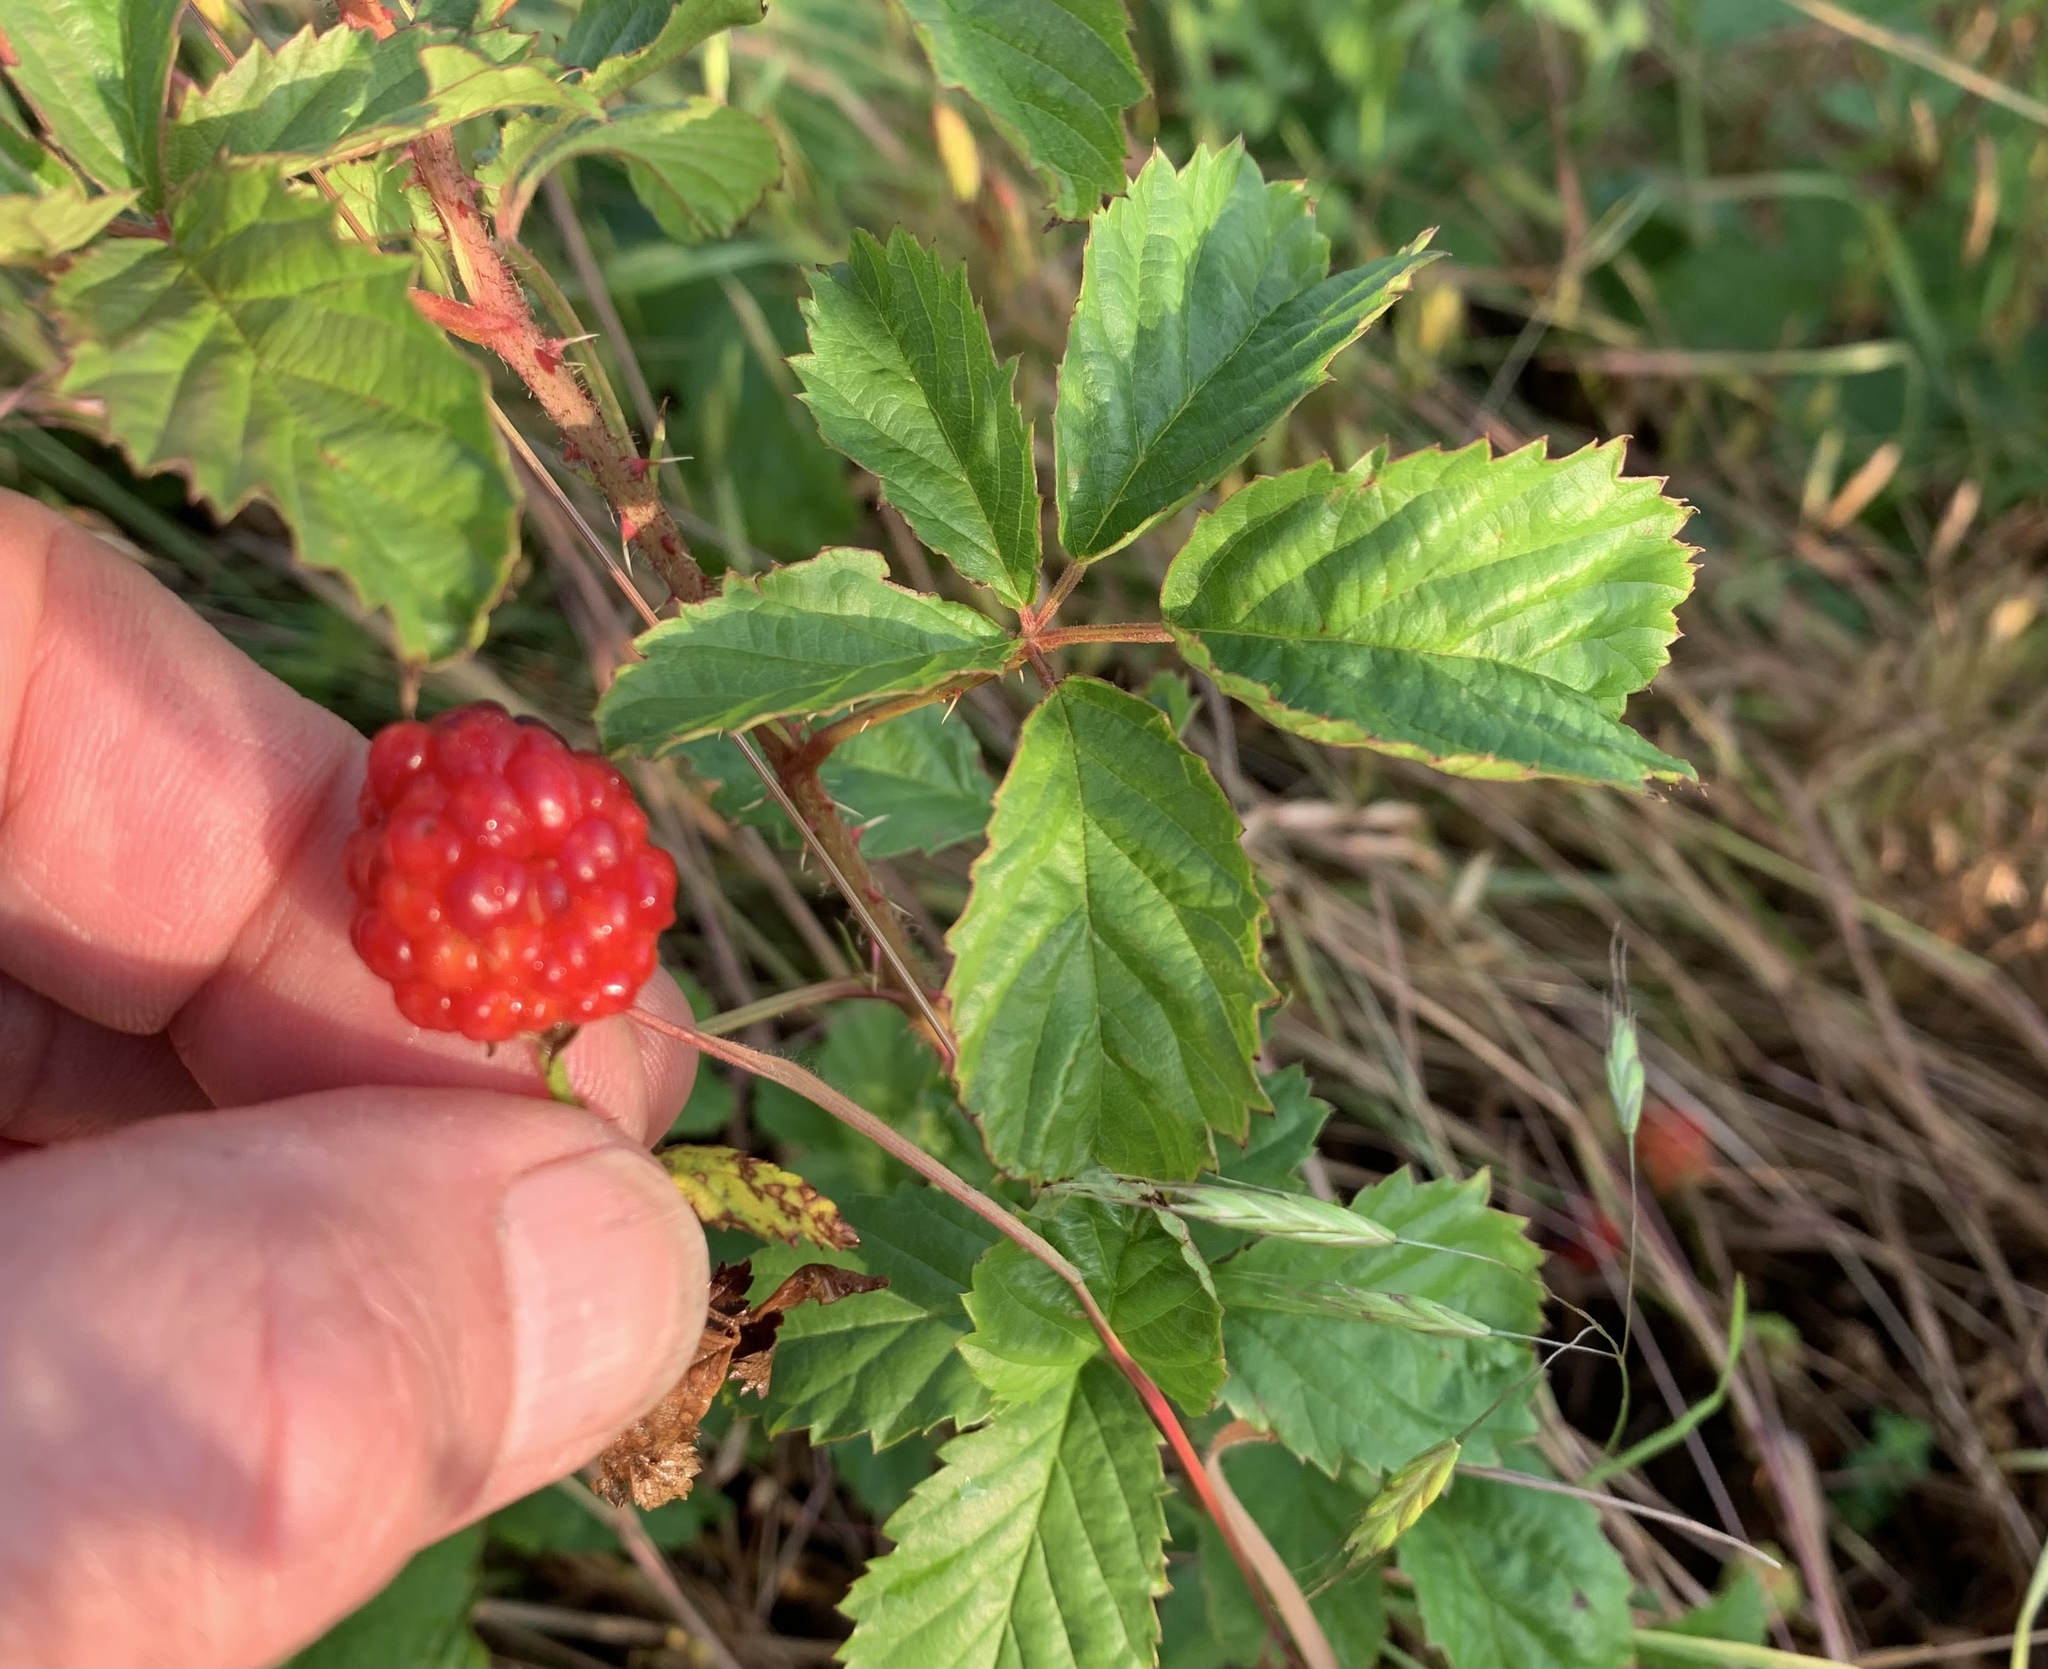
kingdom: Plantae
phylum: Tracheophyta
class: Magnoliopsida
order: Rosales
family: Rosaceae
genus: Rubus
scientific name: Rubus trivialis
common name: Southern dewberry
